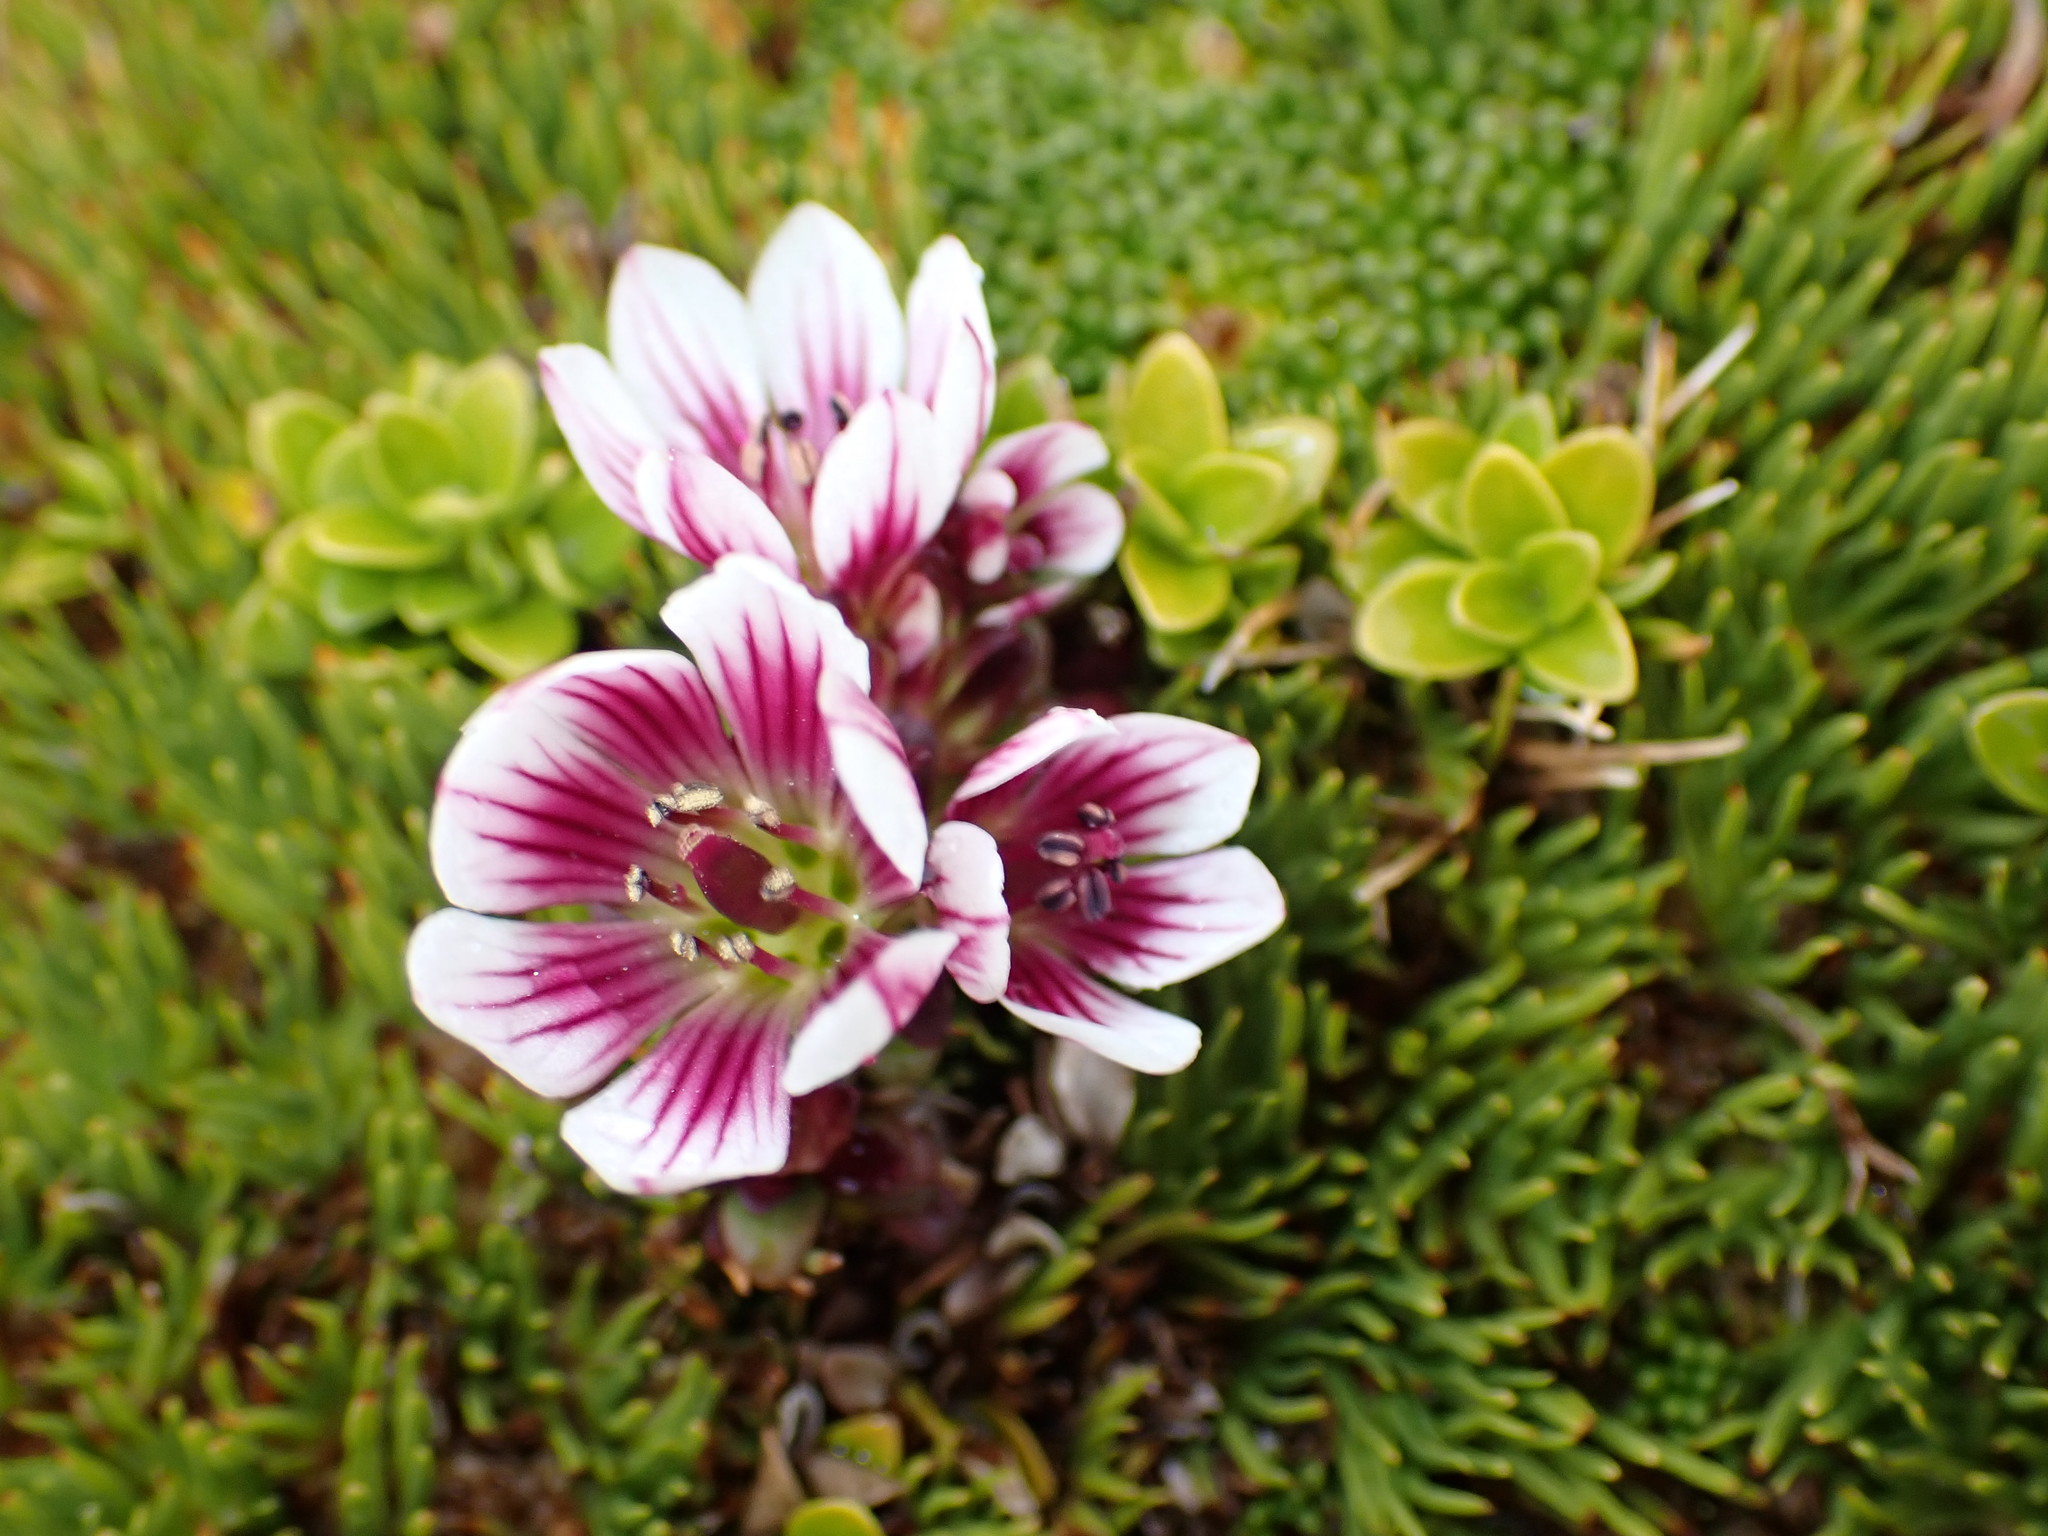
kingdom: Plantae
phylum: Tracheophyta
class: Magnoliopsida
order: Gentianales
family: Gentianaceae
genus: Gentianella
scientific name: Gentianella concinna
